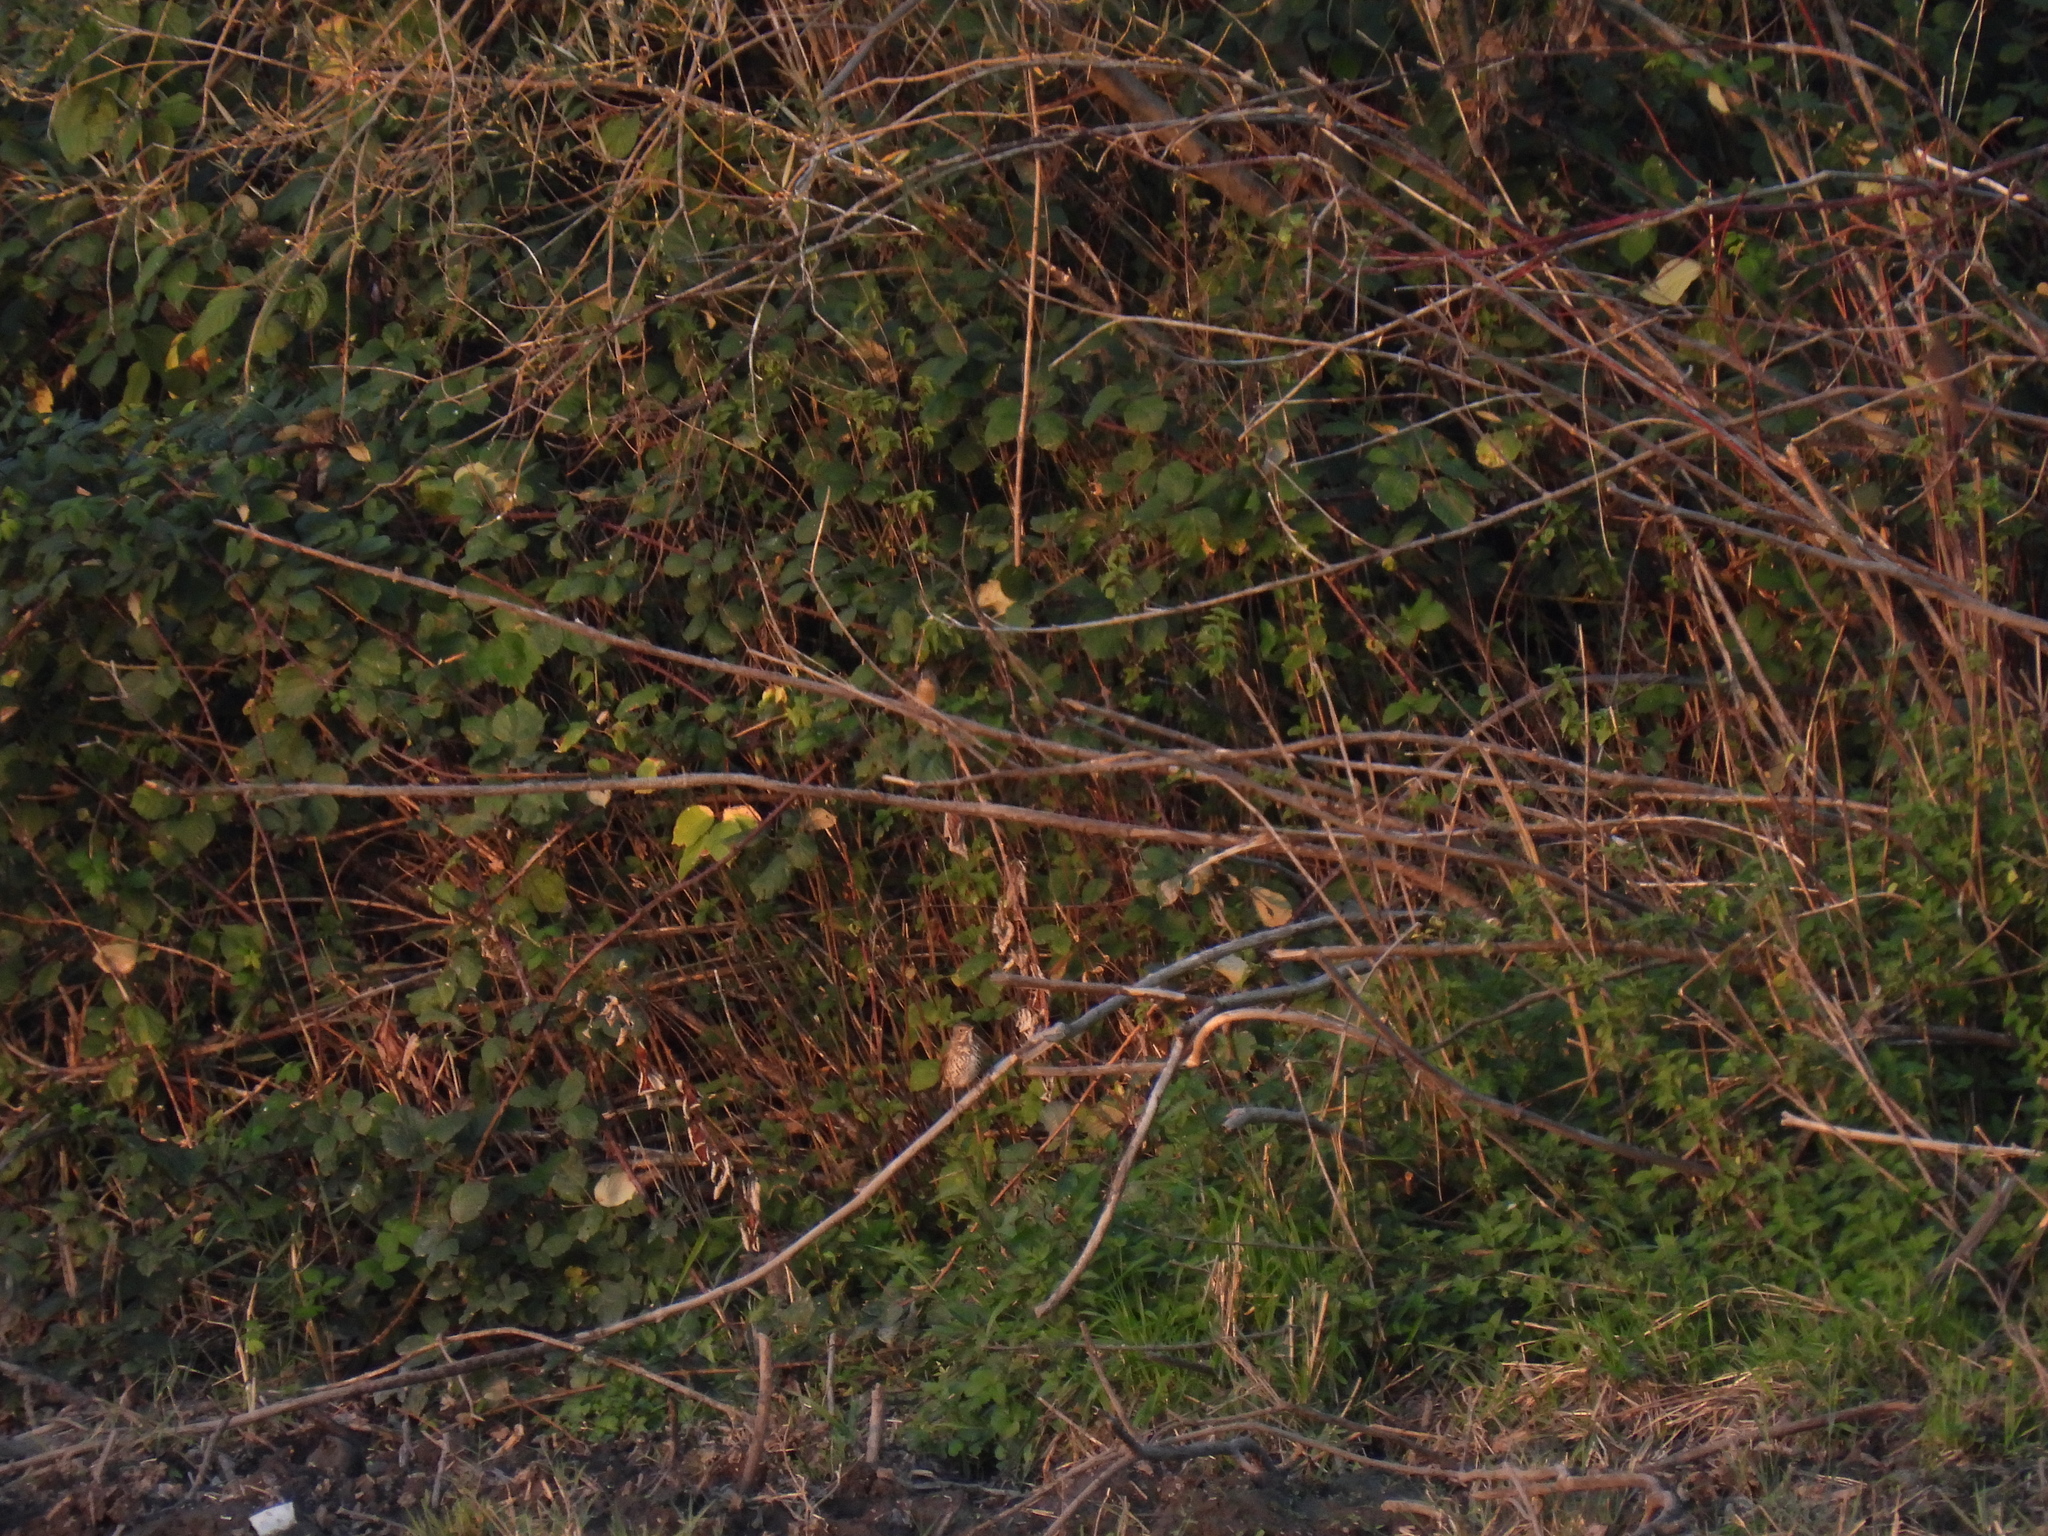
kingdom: Animalia
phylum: Chordata
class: Aves
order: Passeriformes
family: Turdidae
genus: Turdus
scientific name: Turdus philomelos
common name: Song thrush
